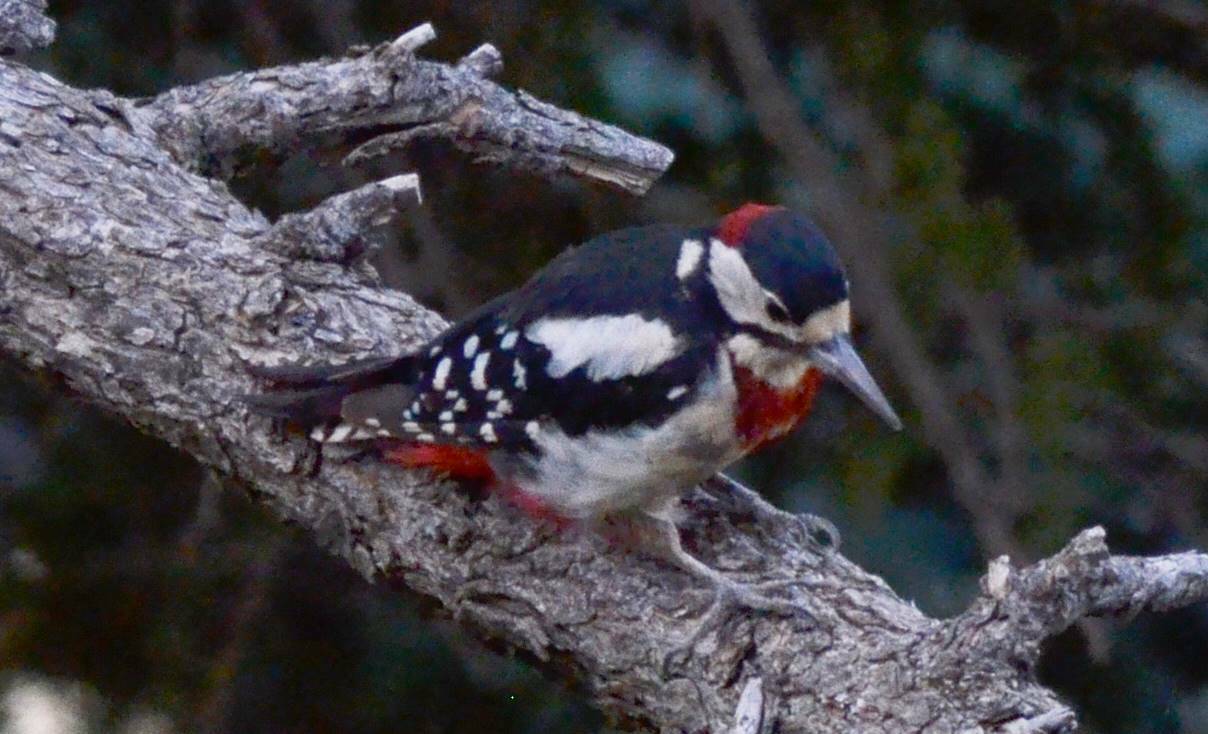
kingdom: Animalia
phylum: Chordata
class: Aves
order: Piciformes
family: Picidae
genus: Dendrocopos
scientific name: Dendrocopos major
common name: Great spotted woodpecker
